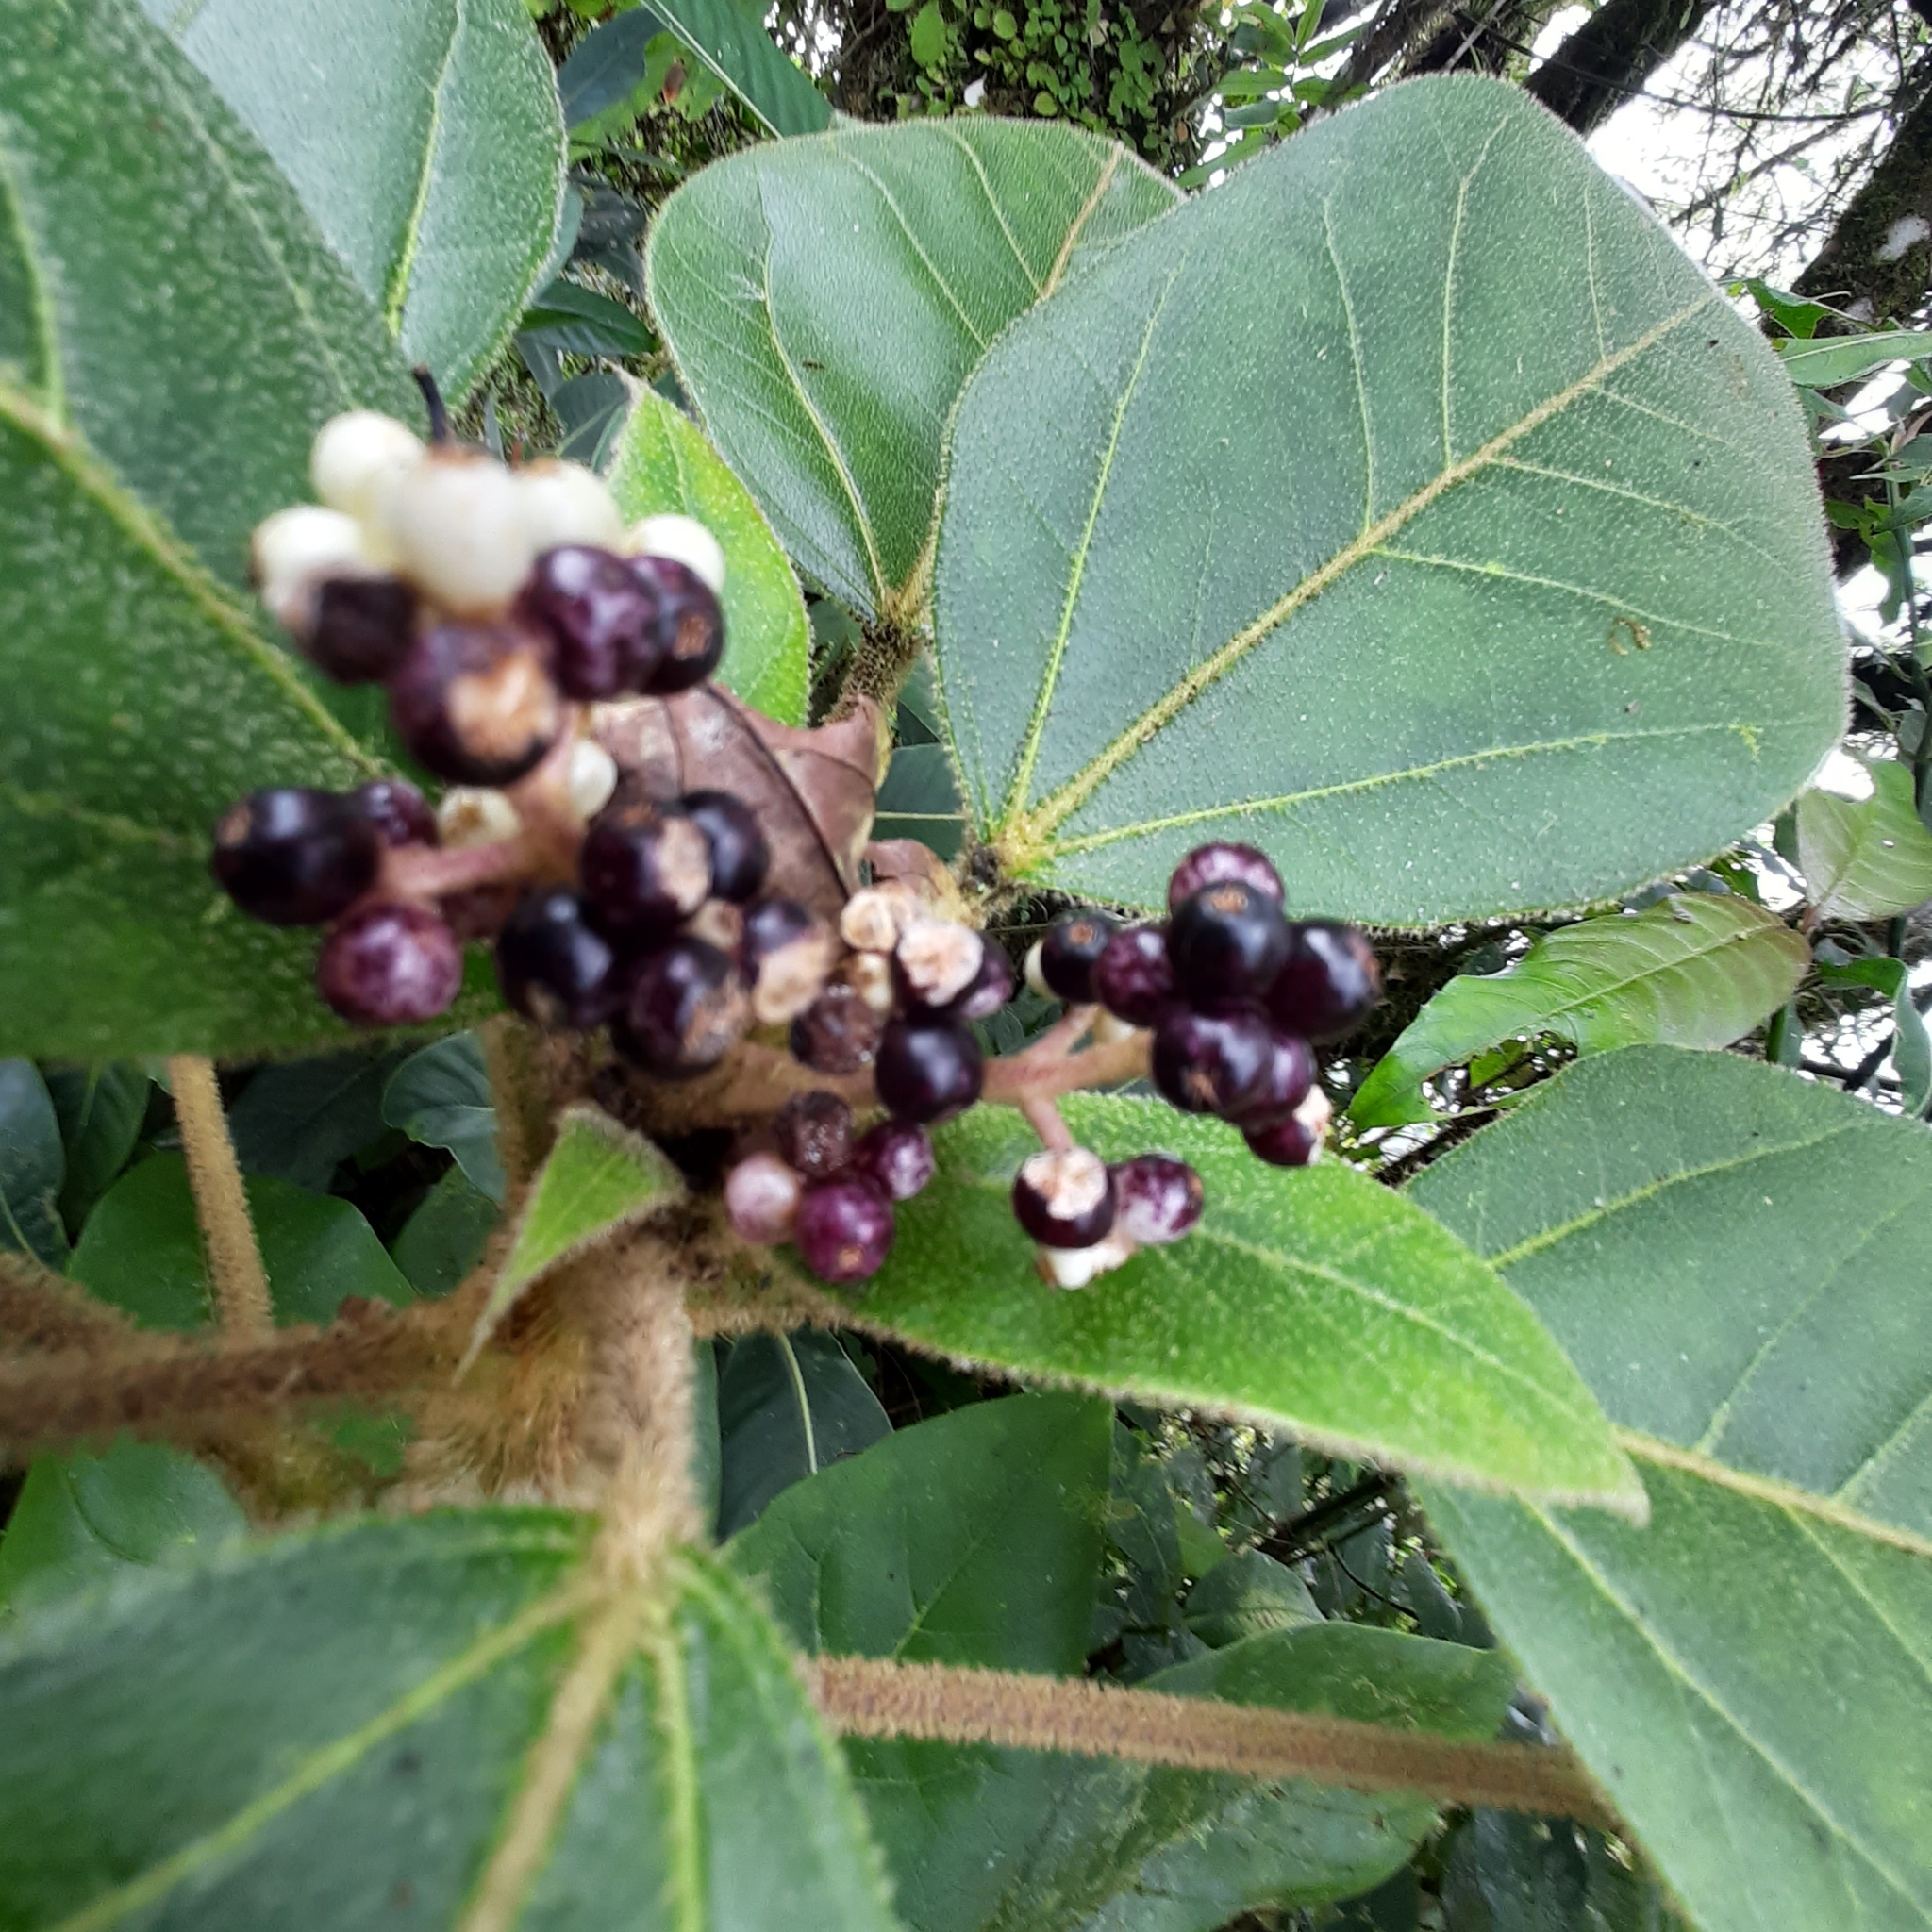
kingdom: Plantae
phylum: Tracheophyta
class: Magnoliopsida
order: Apiales
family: Araliaceae
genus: Oreopanax
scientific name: Oreopanax oerstedianus
